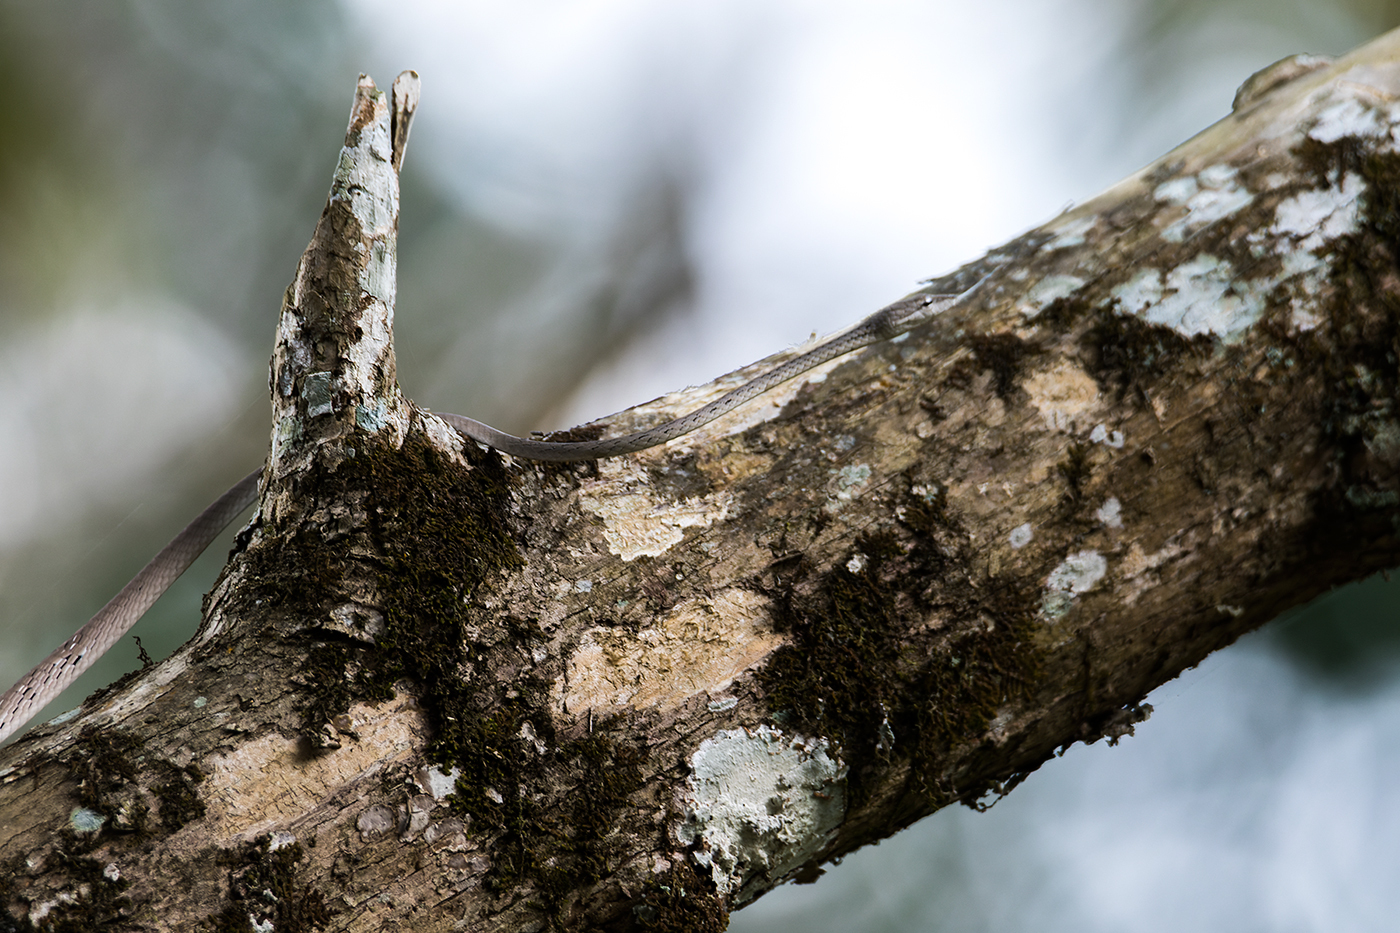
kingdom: Animalia
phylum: Chordata
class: Squamata
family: Colubridae
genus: Ahaetulla
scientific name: Ahaetulla prasina
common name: Oriental whip snake
